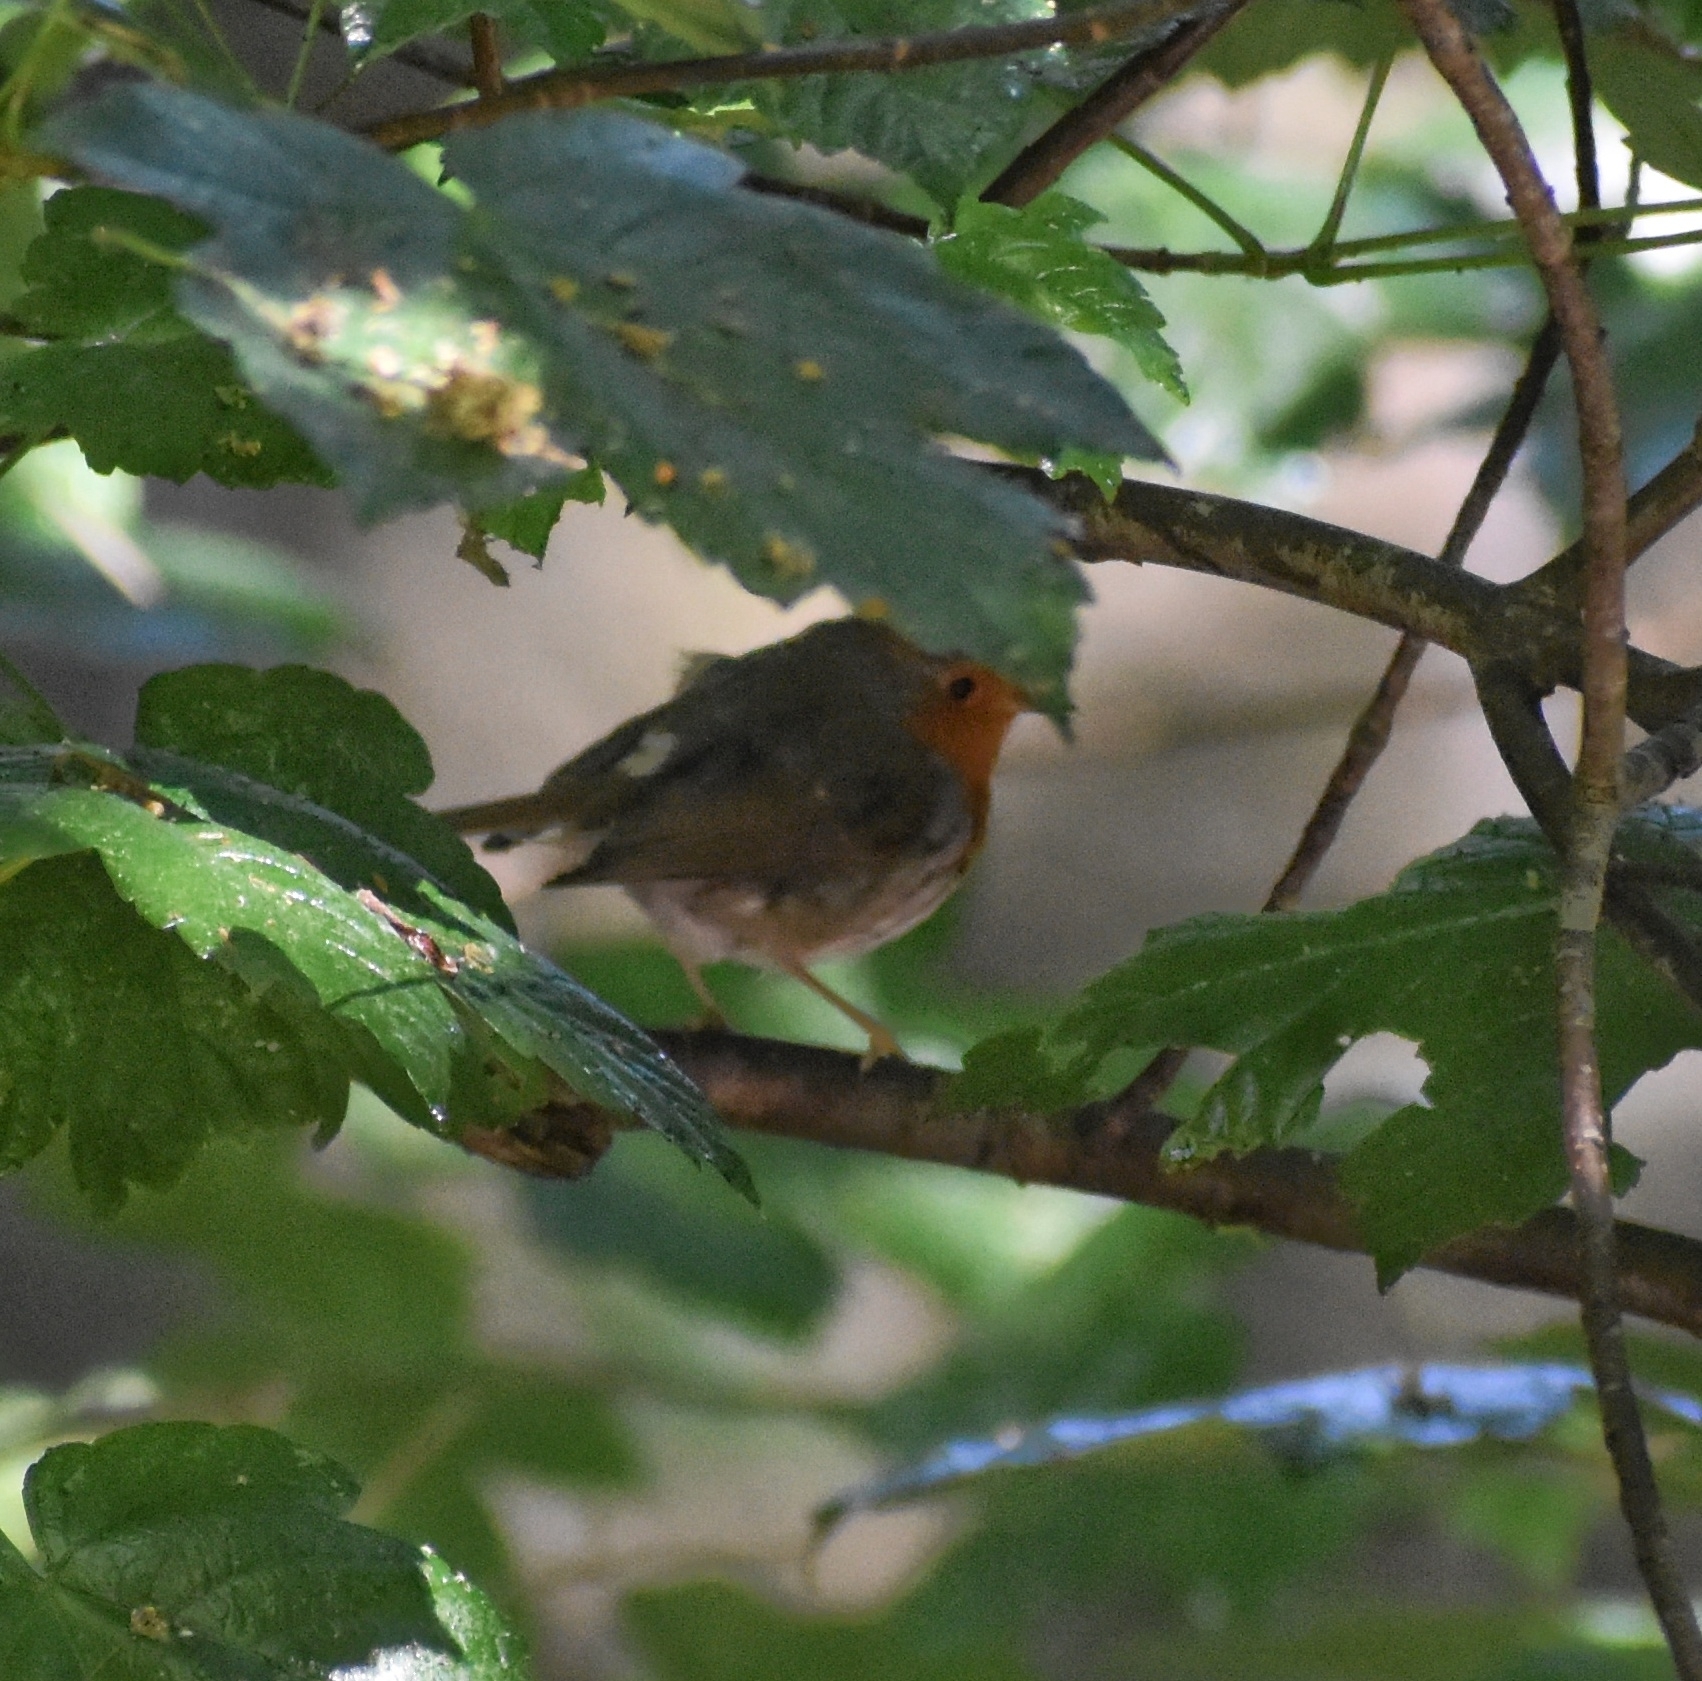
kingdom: Animalia
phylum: Chordata
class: Aves
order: Passeriformes
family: Muscicapidae
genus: Erithacus
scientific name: Erithacus rubecula
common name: European robin
